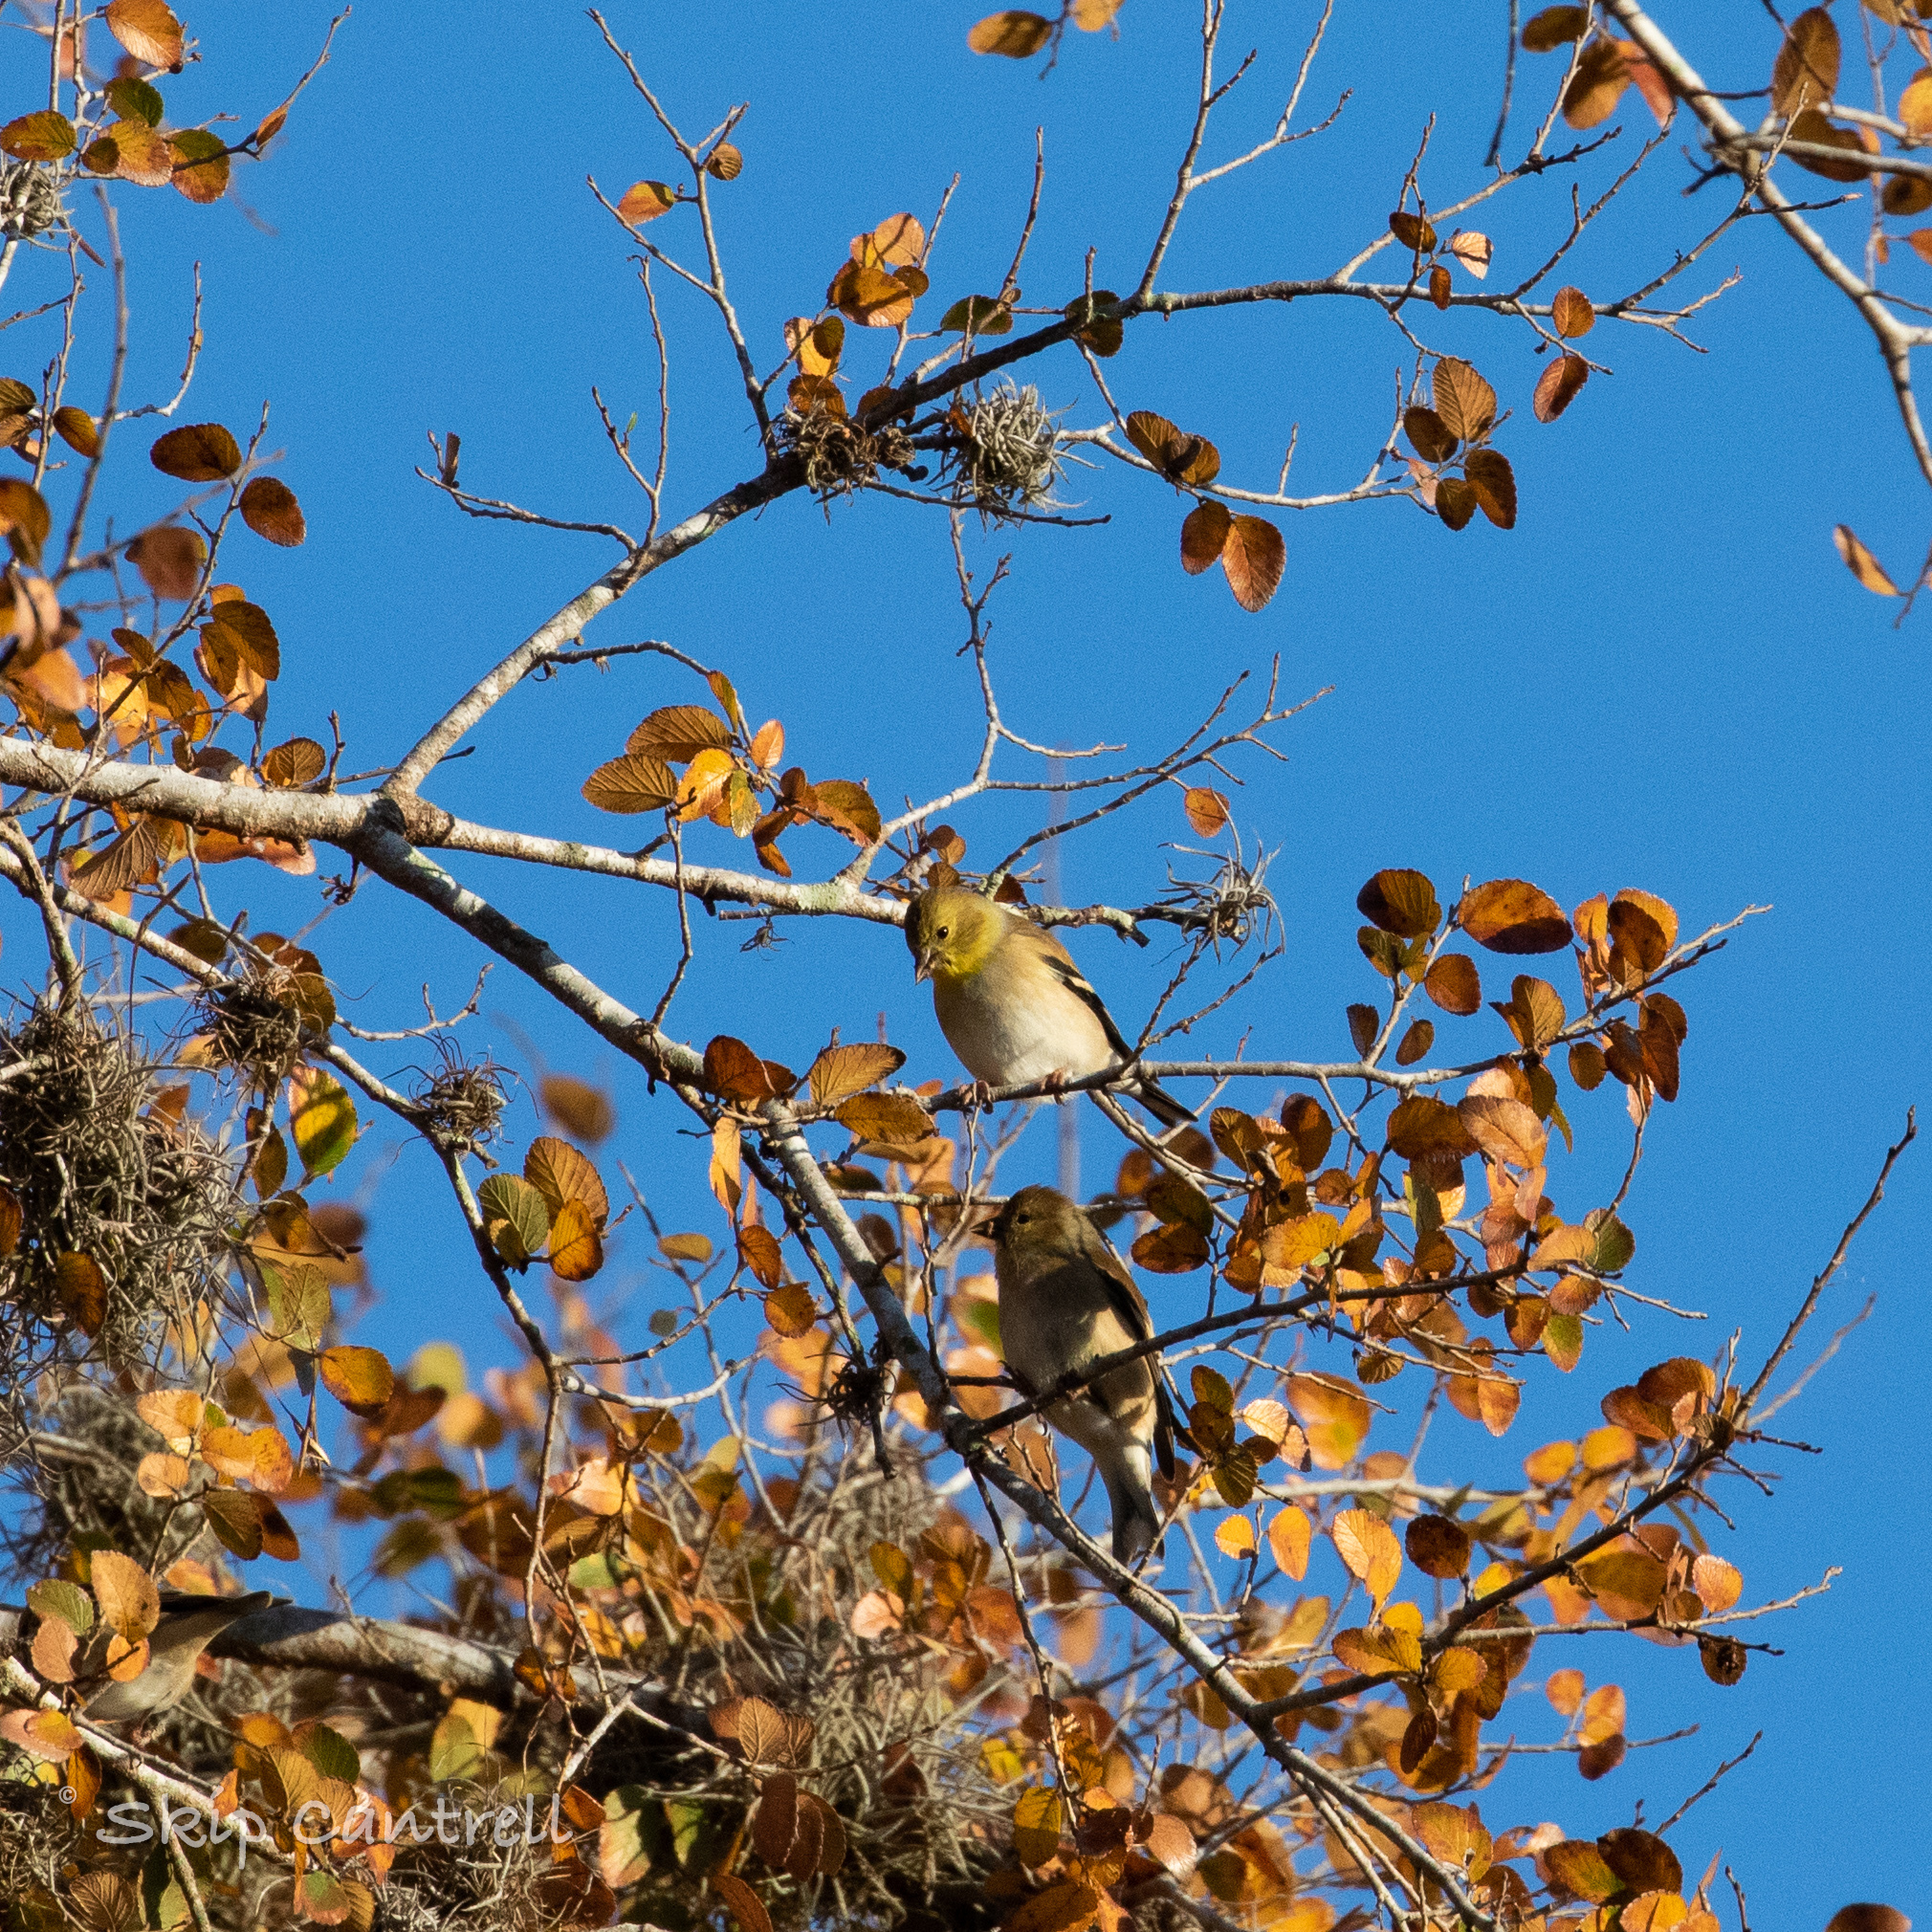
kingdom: Animalia
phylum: Chordata
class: Aves
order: Passeriformes
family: Fringillidae
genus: Spinus
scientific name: Spinus tristis
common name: American goldfinch
